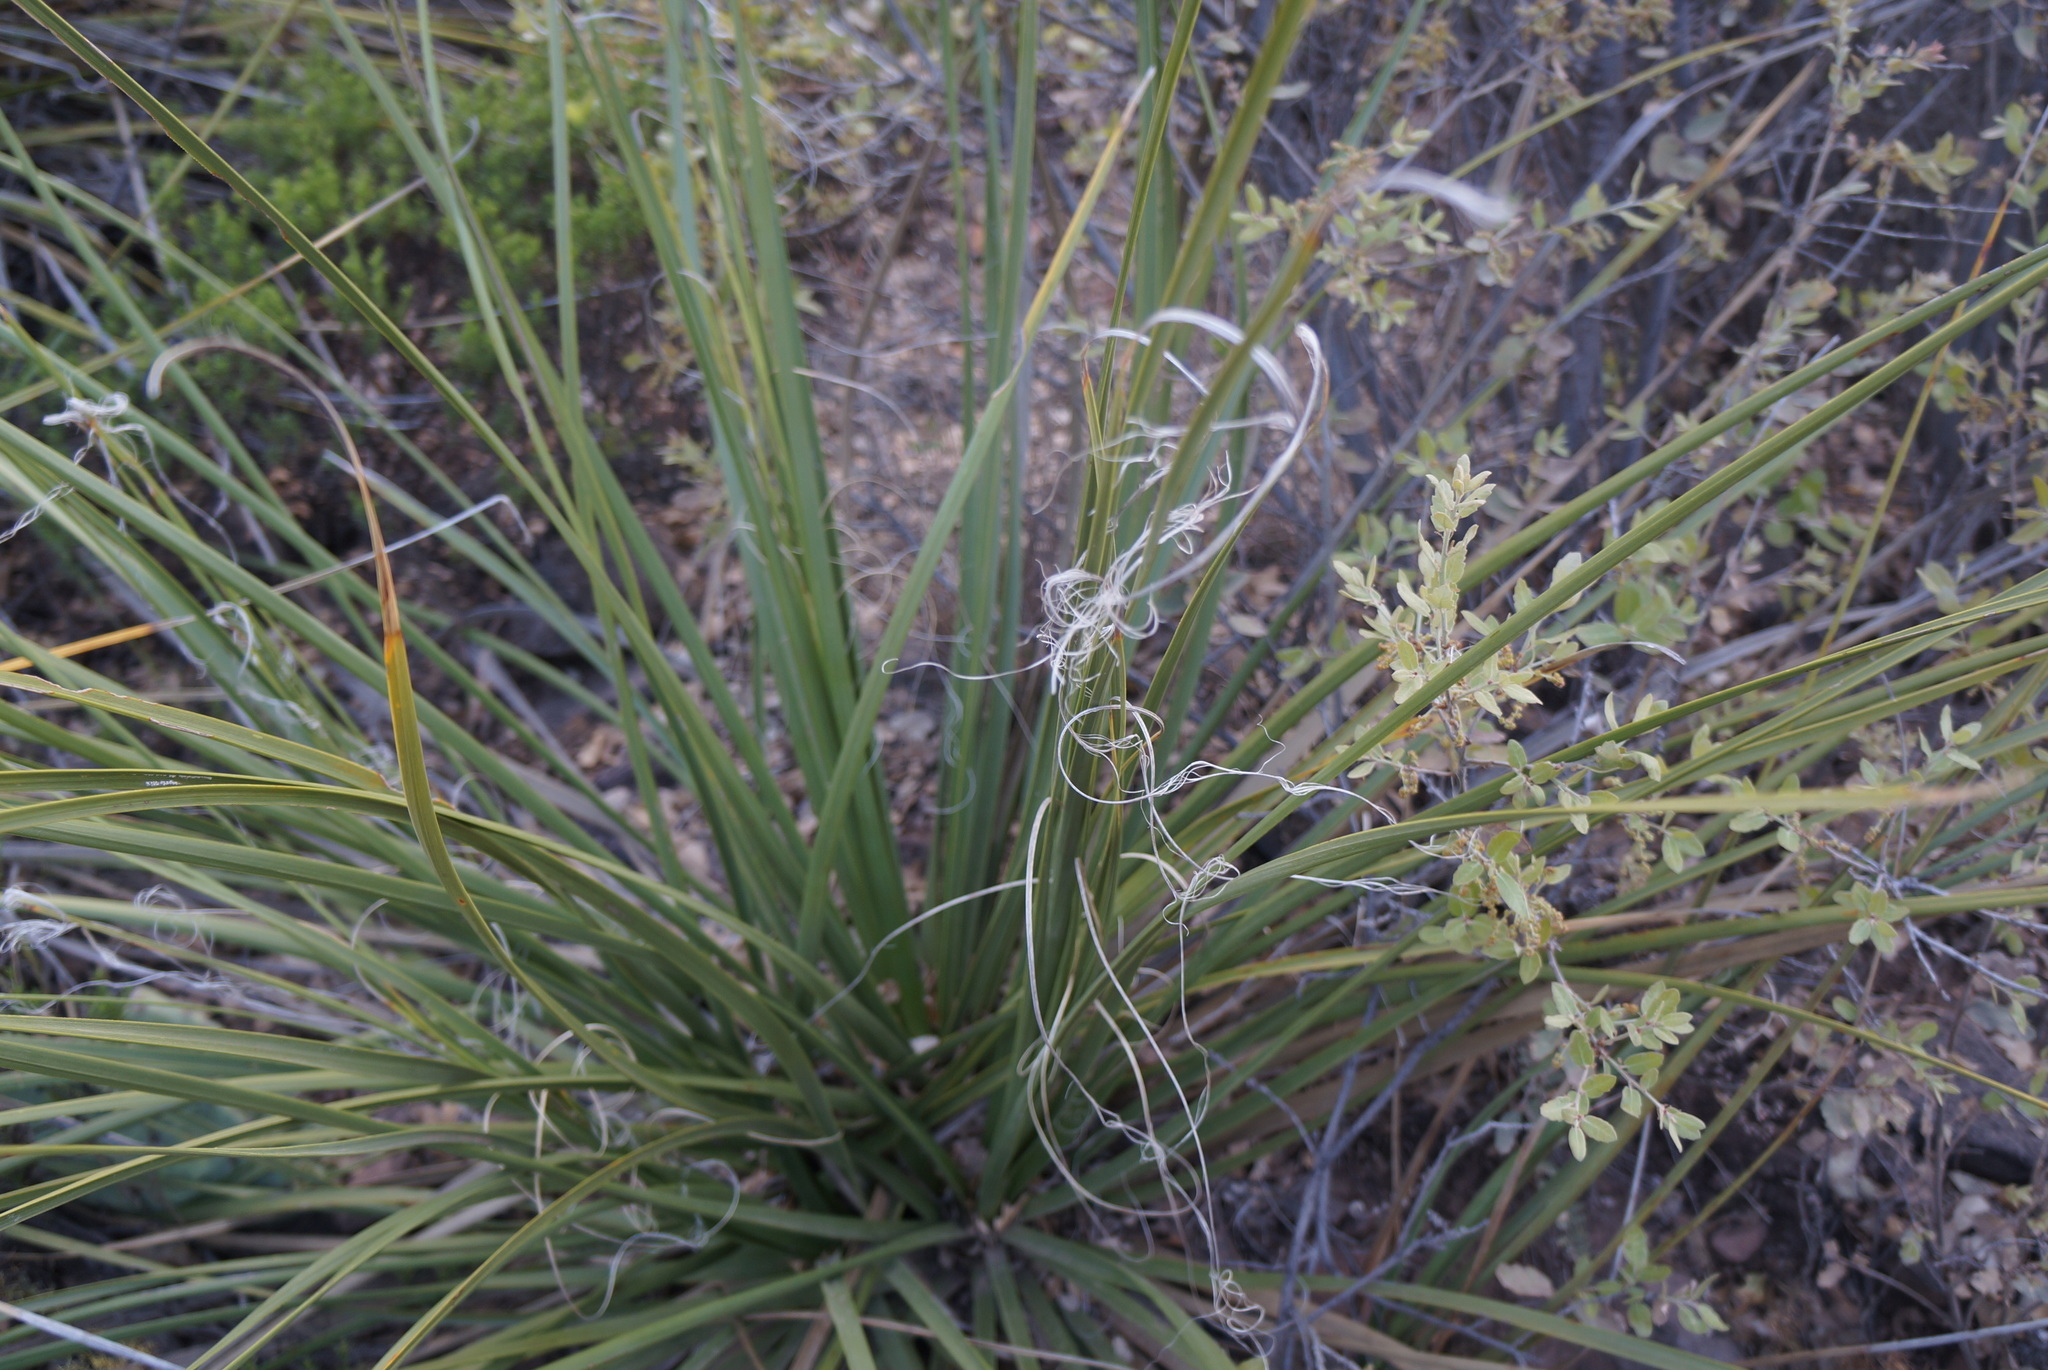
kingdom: Plantae
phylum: Tracheophyta
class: Liliopsida
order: Asparagales
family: Asparagaceae
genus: Nolina
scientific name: Nolina erumpens
